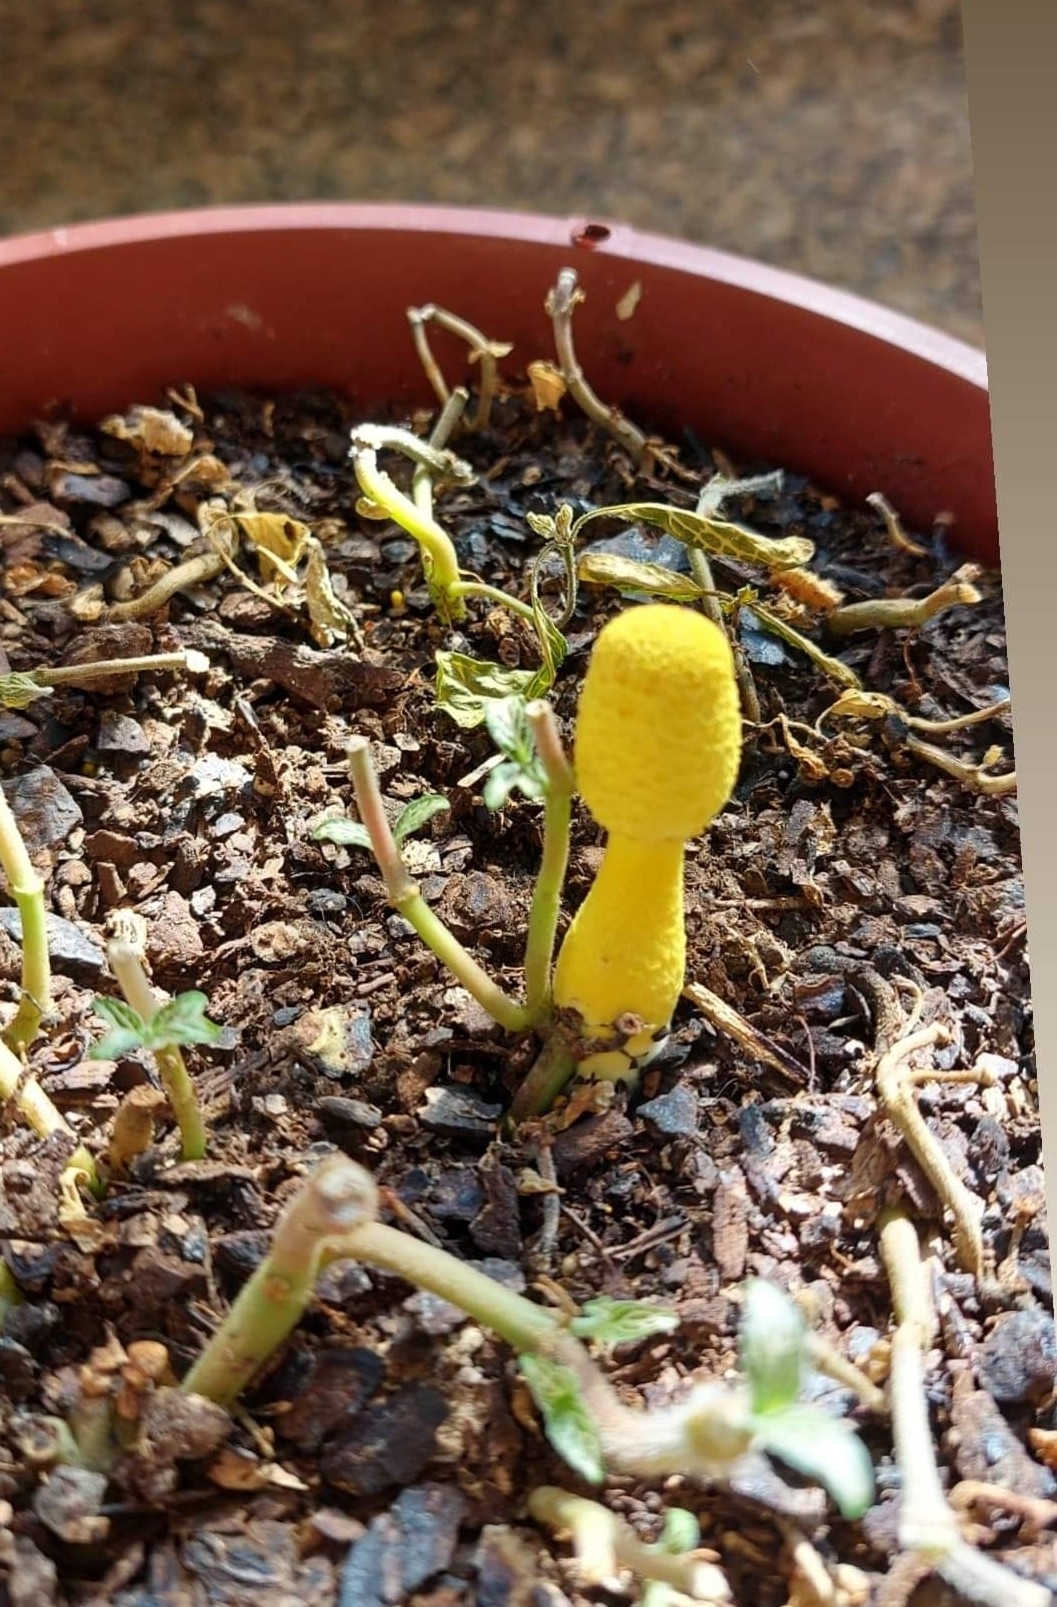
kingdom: Fungi
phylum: Basidiomycota
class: Agaricomycetes
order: Agaricales
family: Agaricaceae
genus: Leucocoprinus
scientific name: Leucocoprinus birnbaumii
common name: Plantpot dapperling
